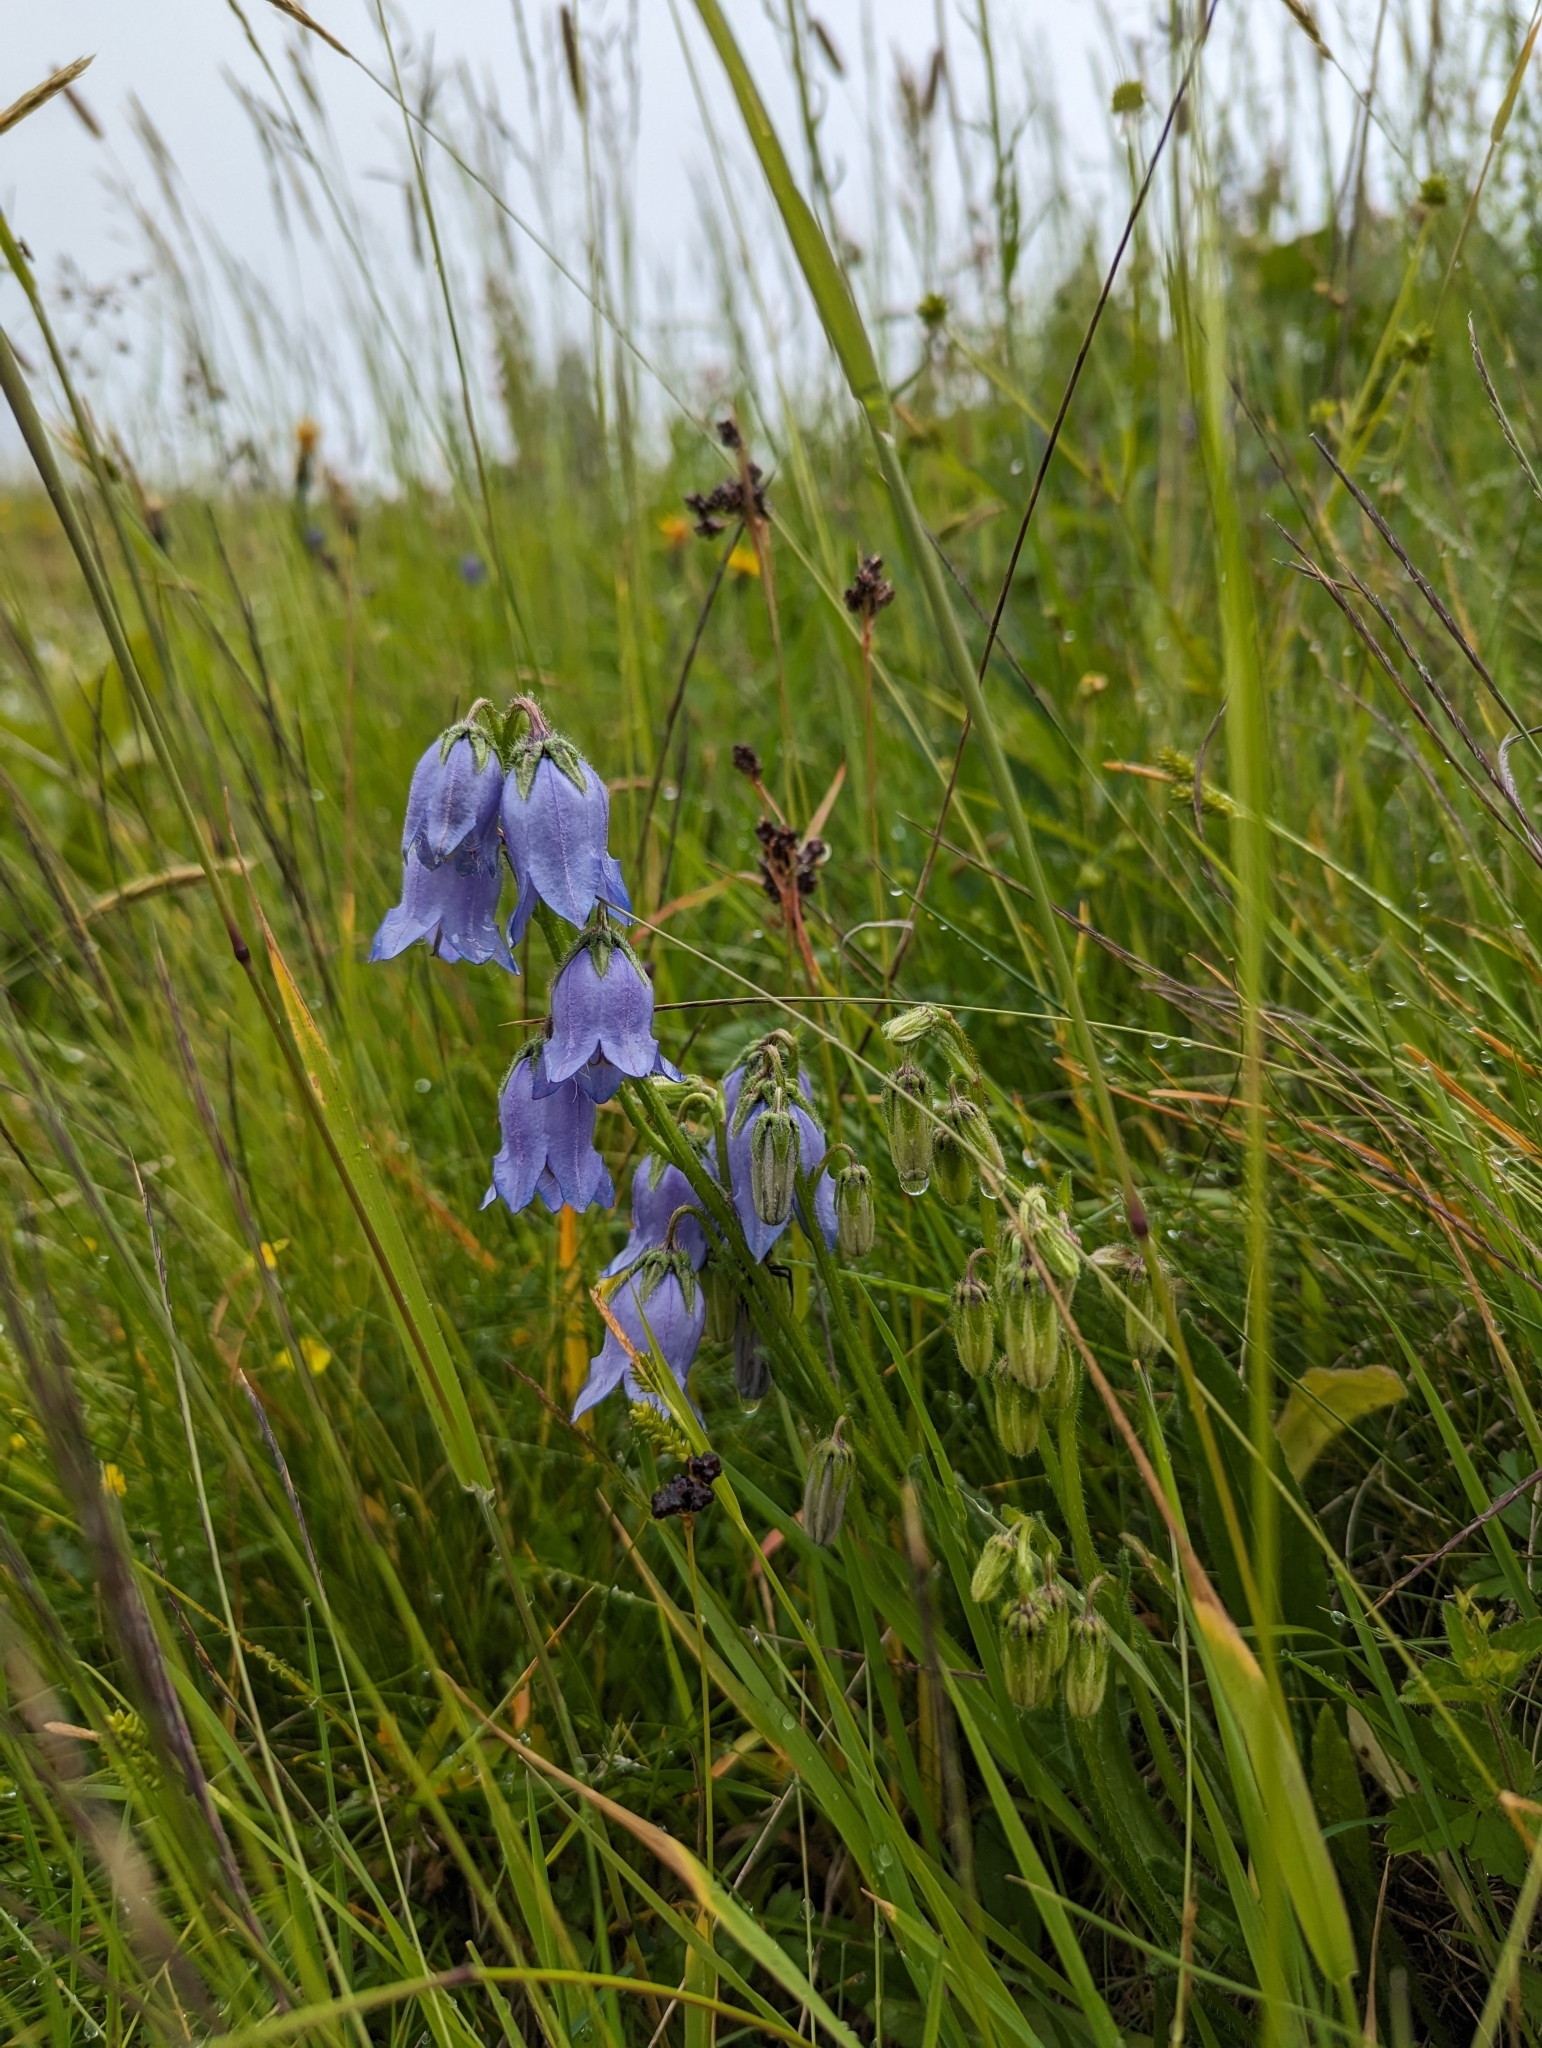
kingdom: Plantae
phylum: Tracheophyta
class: Magnoliopsida
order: Asterales
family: Campanulaceae
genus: Campanula
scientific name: Campanula barbata
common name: Bearded bellflower
